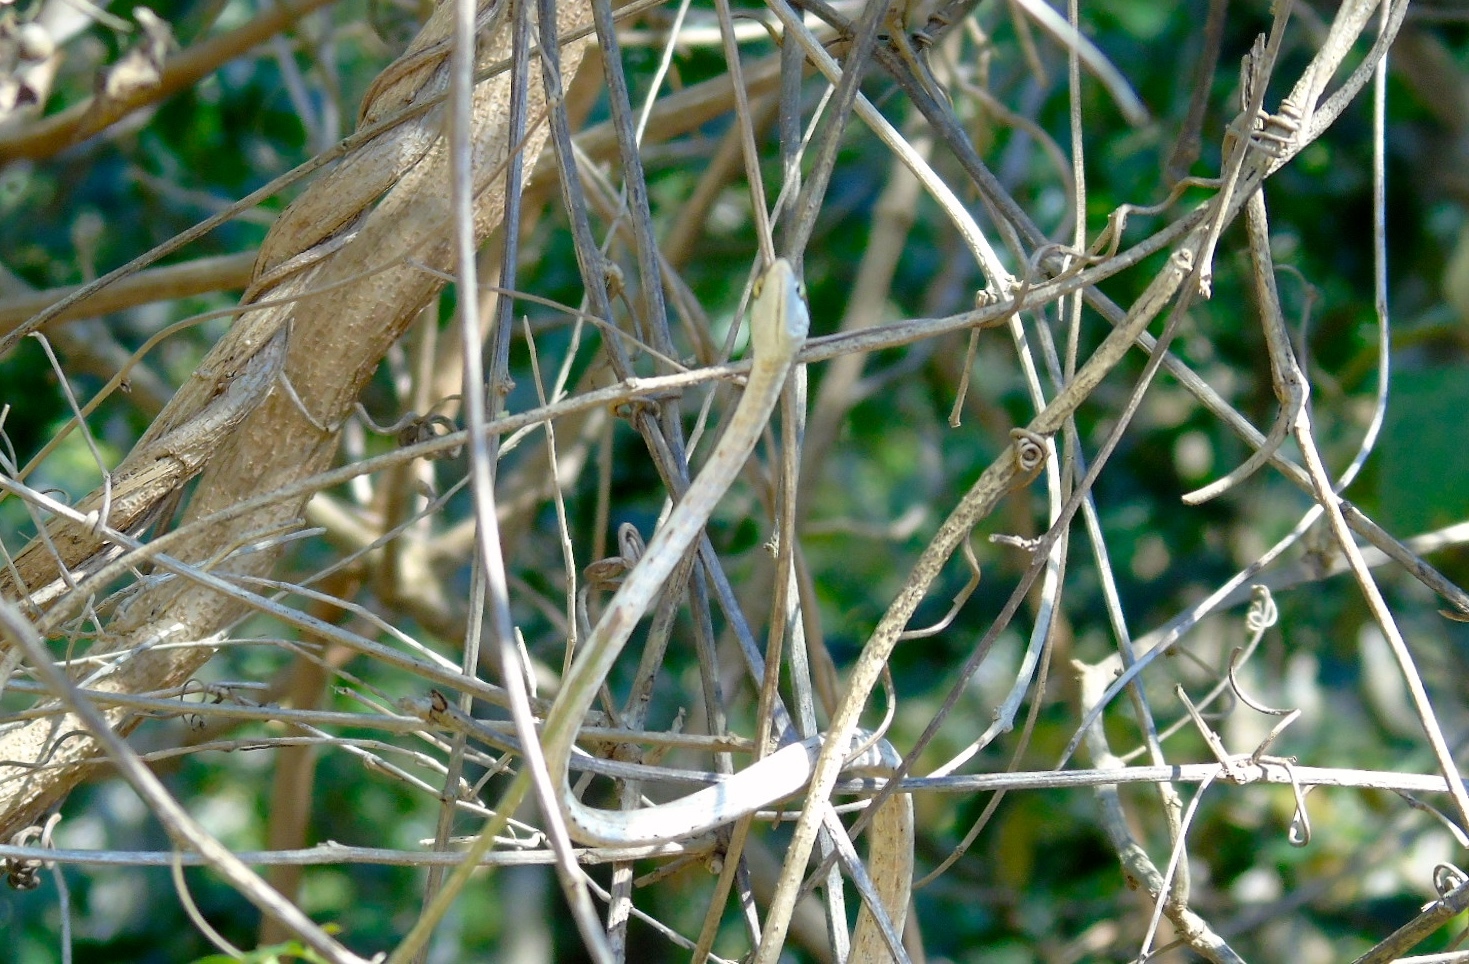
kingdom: Animalia
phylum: Chordata
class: Squamata
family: Colubridae
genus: Oxybelis
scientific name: Oxybelis microphthalmus
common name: Thrornscrub vine snake
